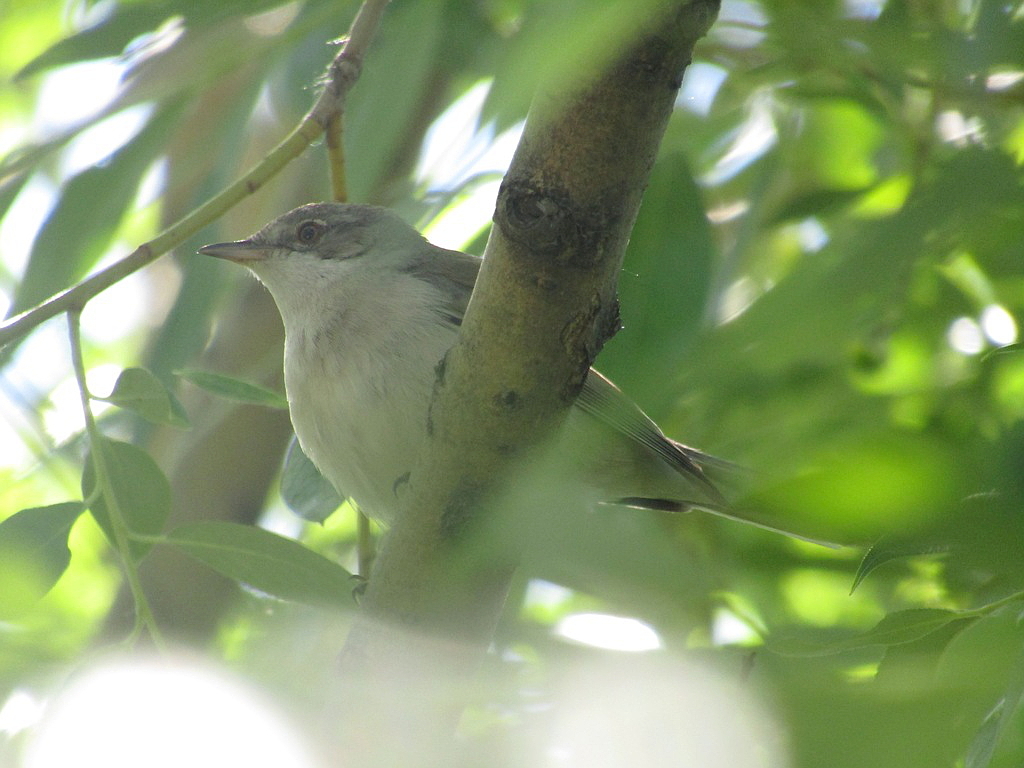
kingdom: Animalia
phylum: Chordata
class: Aves
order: Passeriformes
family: Sylviidae
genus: Sylvia
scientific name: Sylvia communis
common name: Common whitethroat
